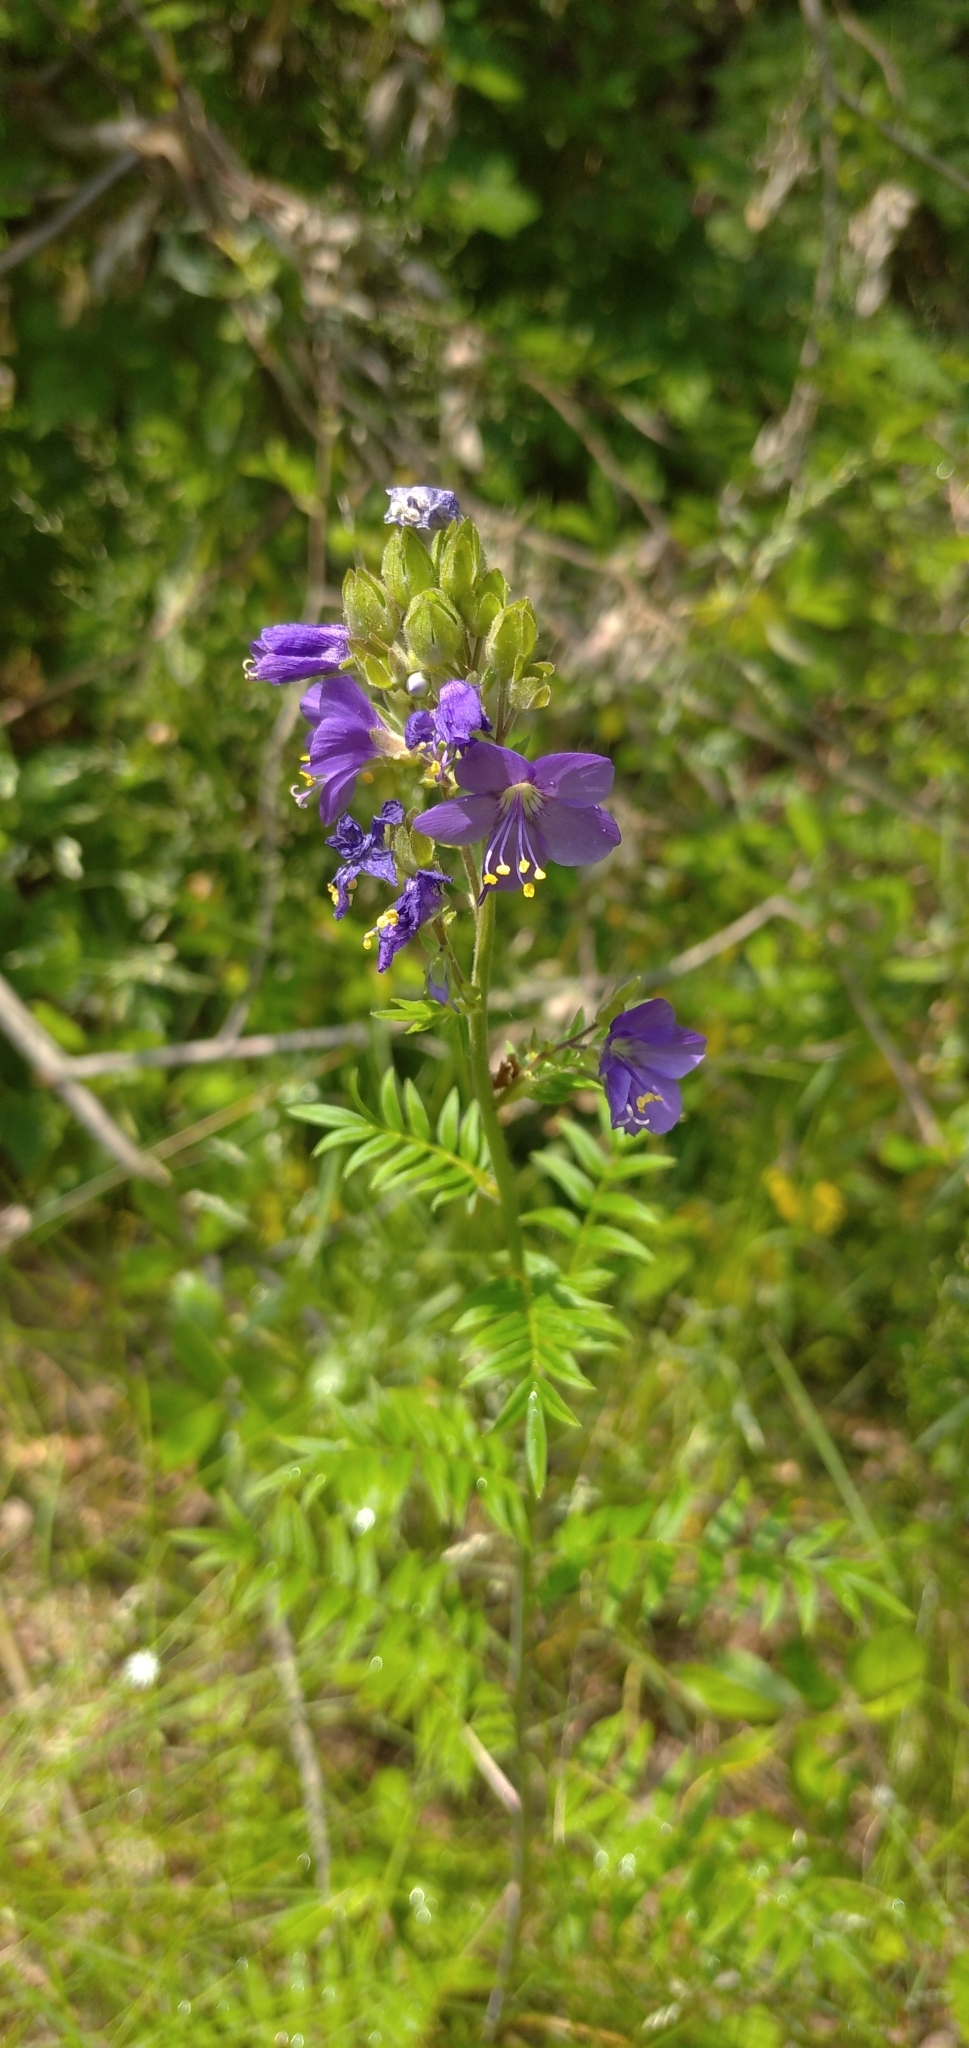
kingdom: Plantae
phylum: Tracheophyta
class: Magnoliopsida
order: Ericales
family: Polemoniaceae
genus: Polemonium
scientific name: Polemonium caeruleum
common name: Jacob's-ladder
